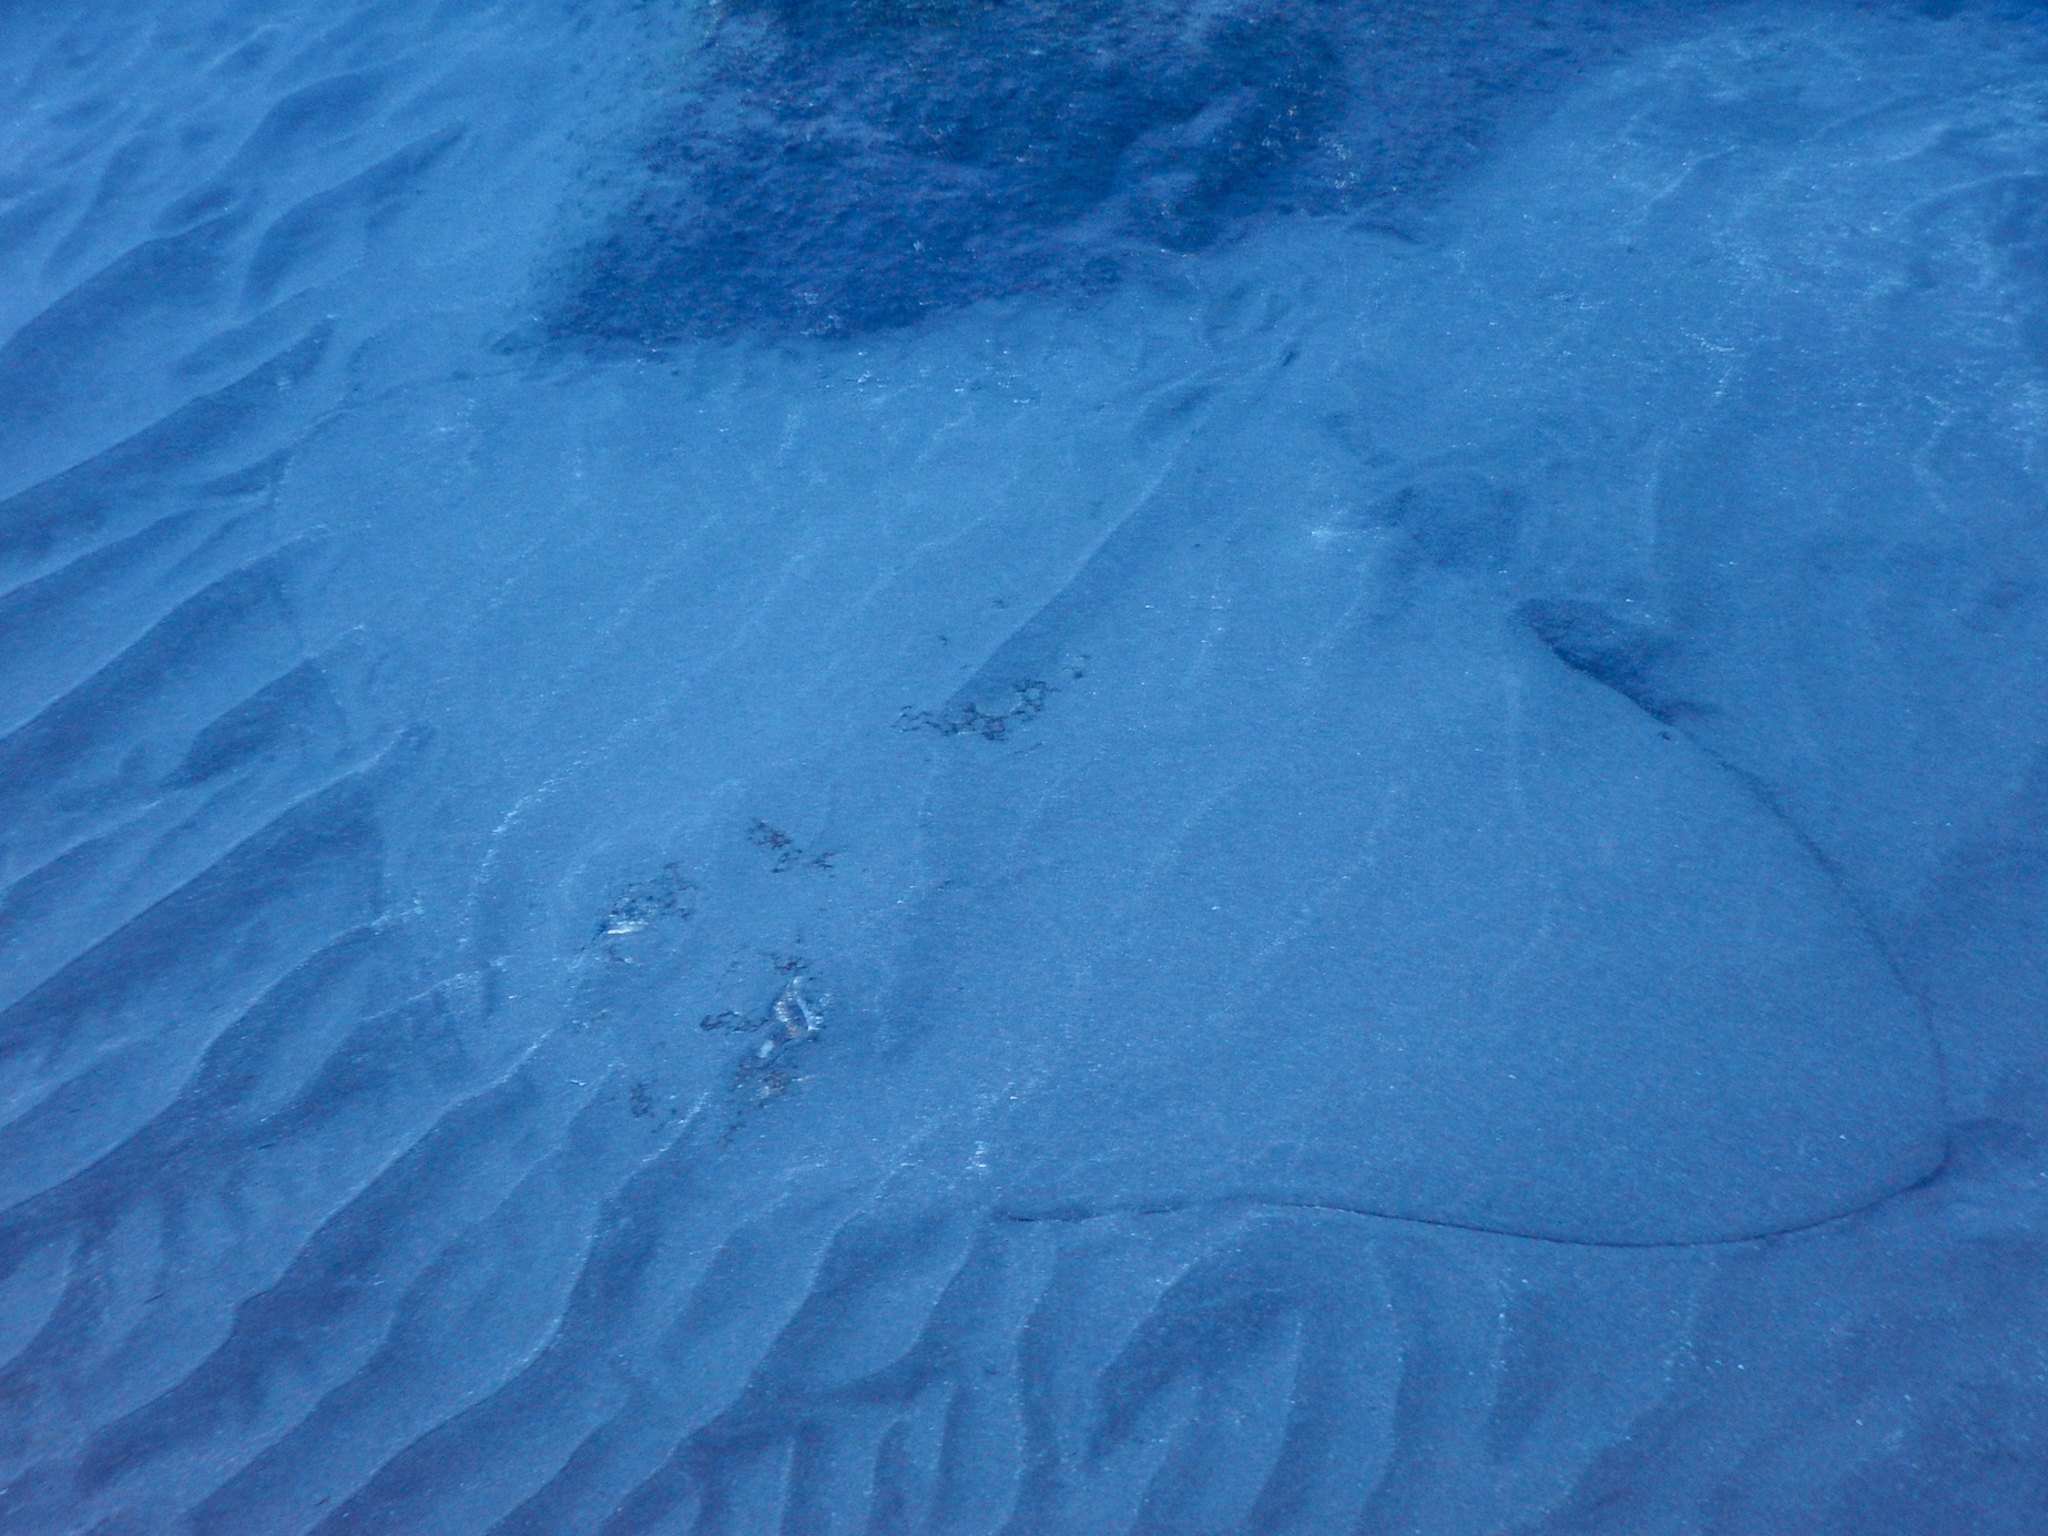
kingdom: Animalia
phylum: Chordata
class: Elasmobranchii
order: Myliobatiformes
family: Gymnuridae
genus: Gymnura
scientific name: Gymnura altavela
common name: Spiny butterfly ray
